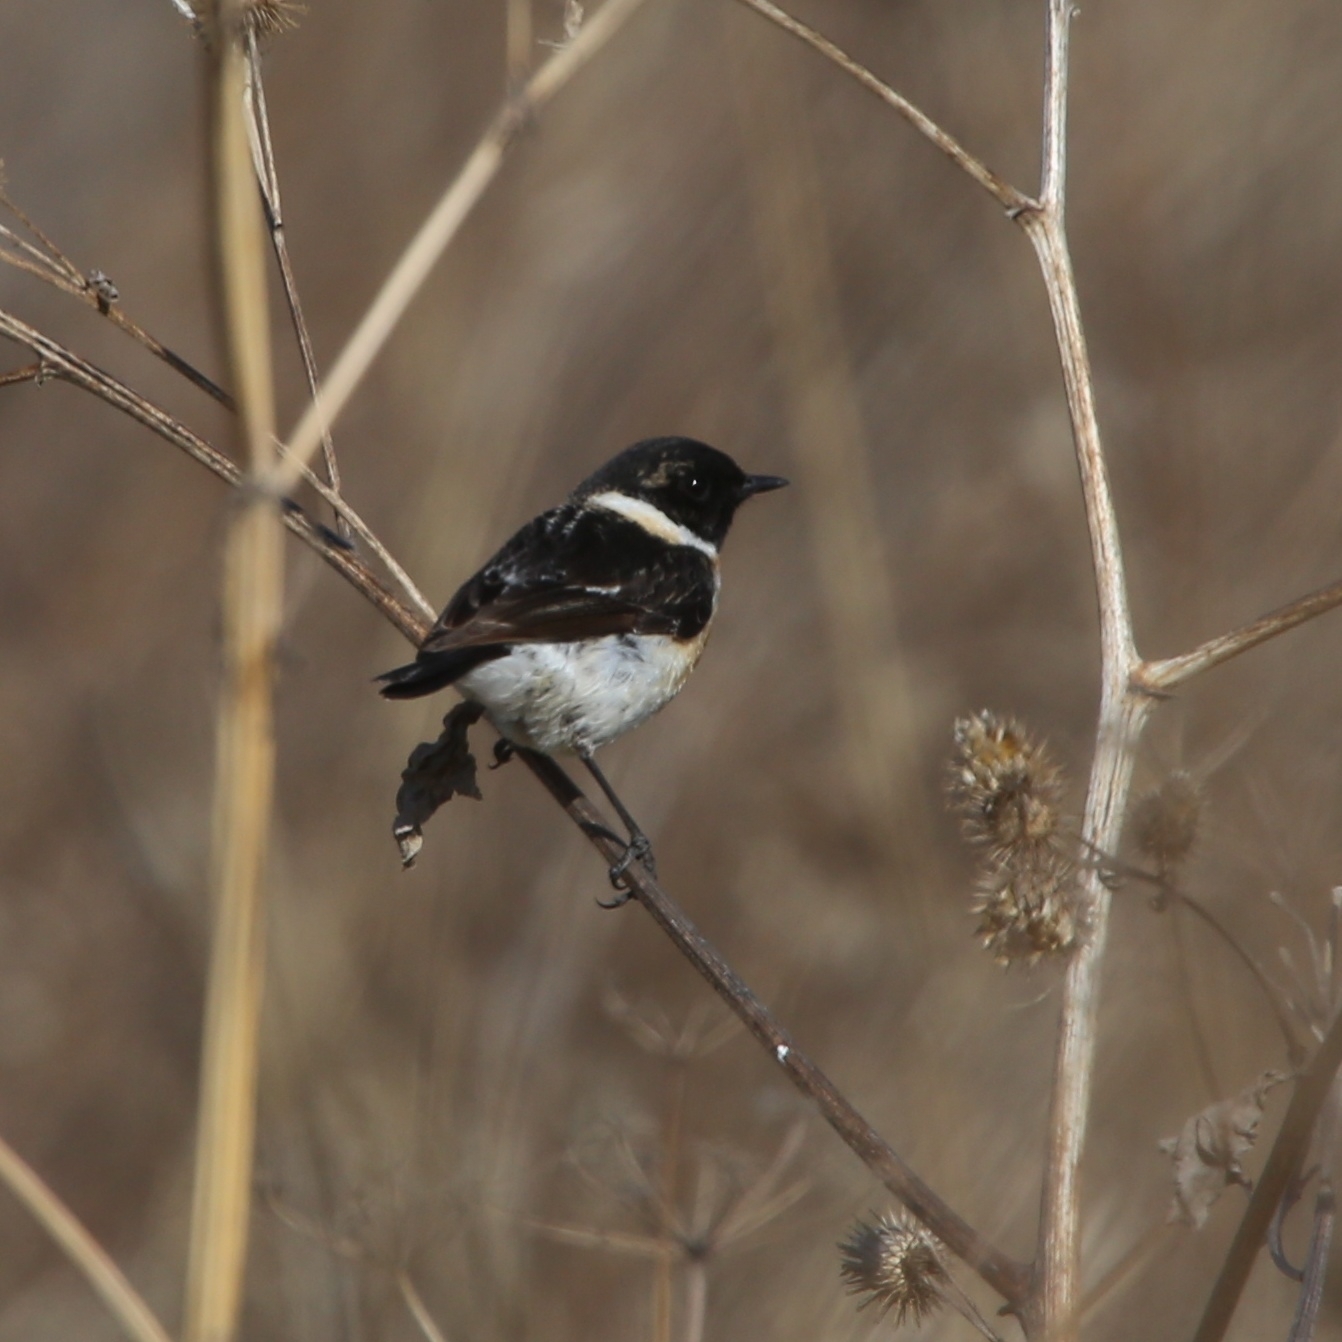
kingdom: Animalia
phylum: Chordata
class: Aves
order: Passeriformes
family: Muscicapidae
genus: Saxicola
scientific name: Saxicola maurus
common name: Siberian stonechat
